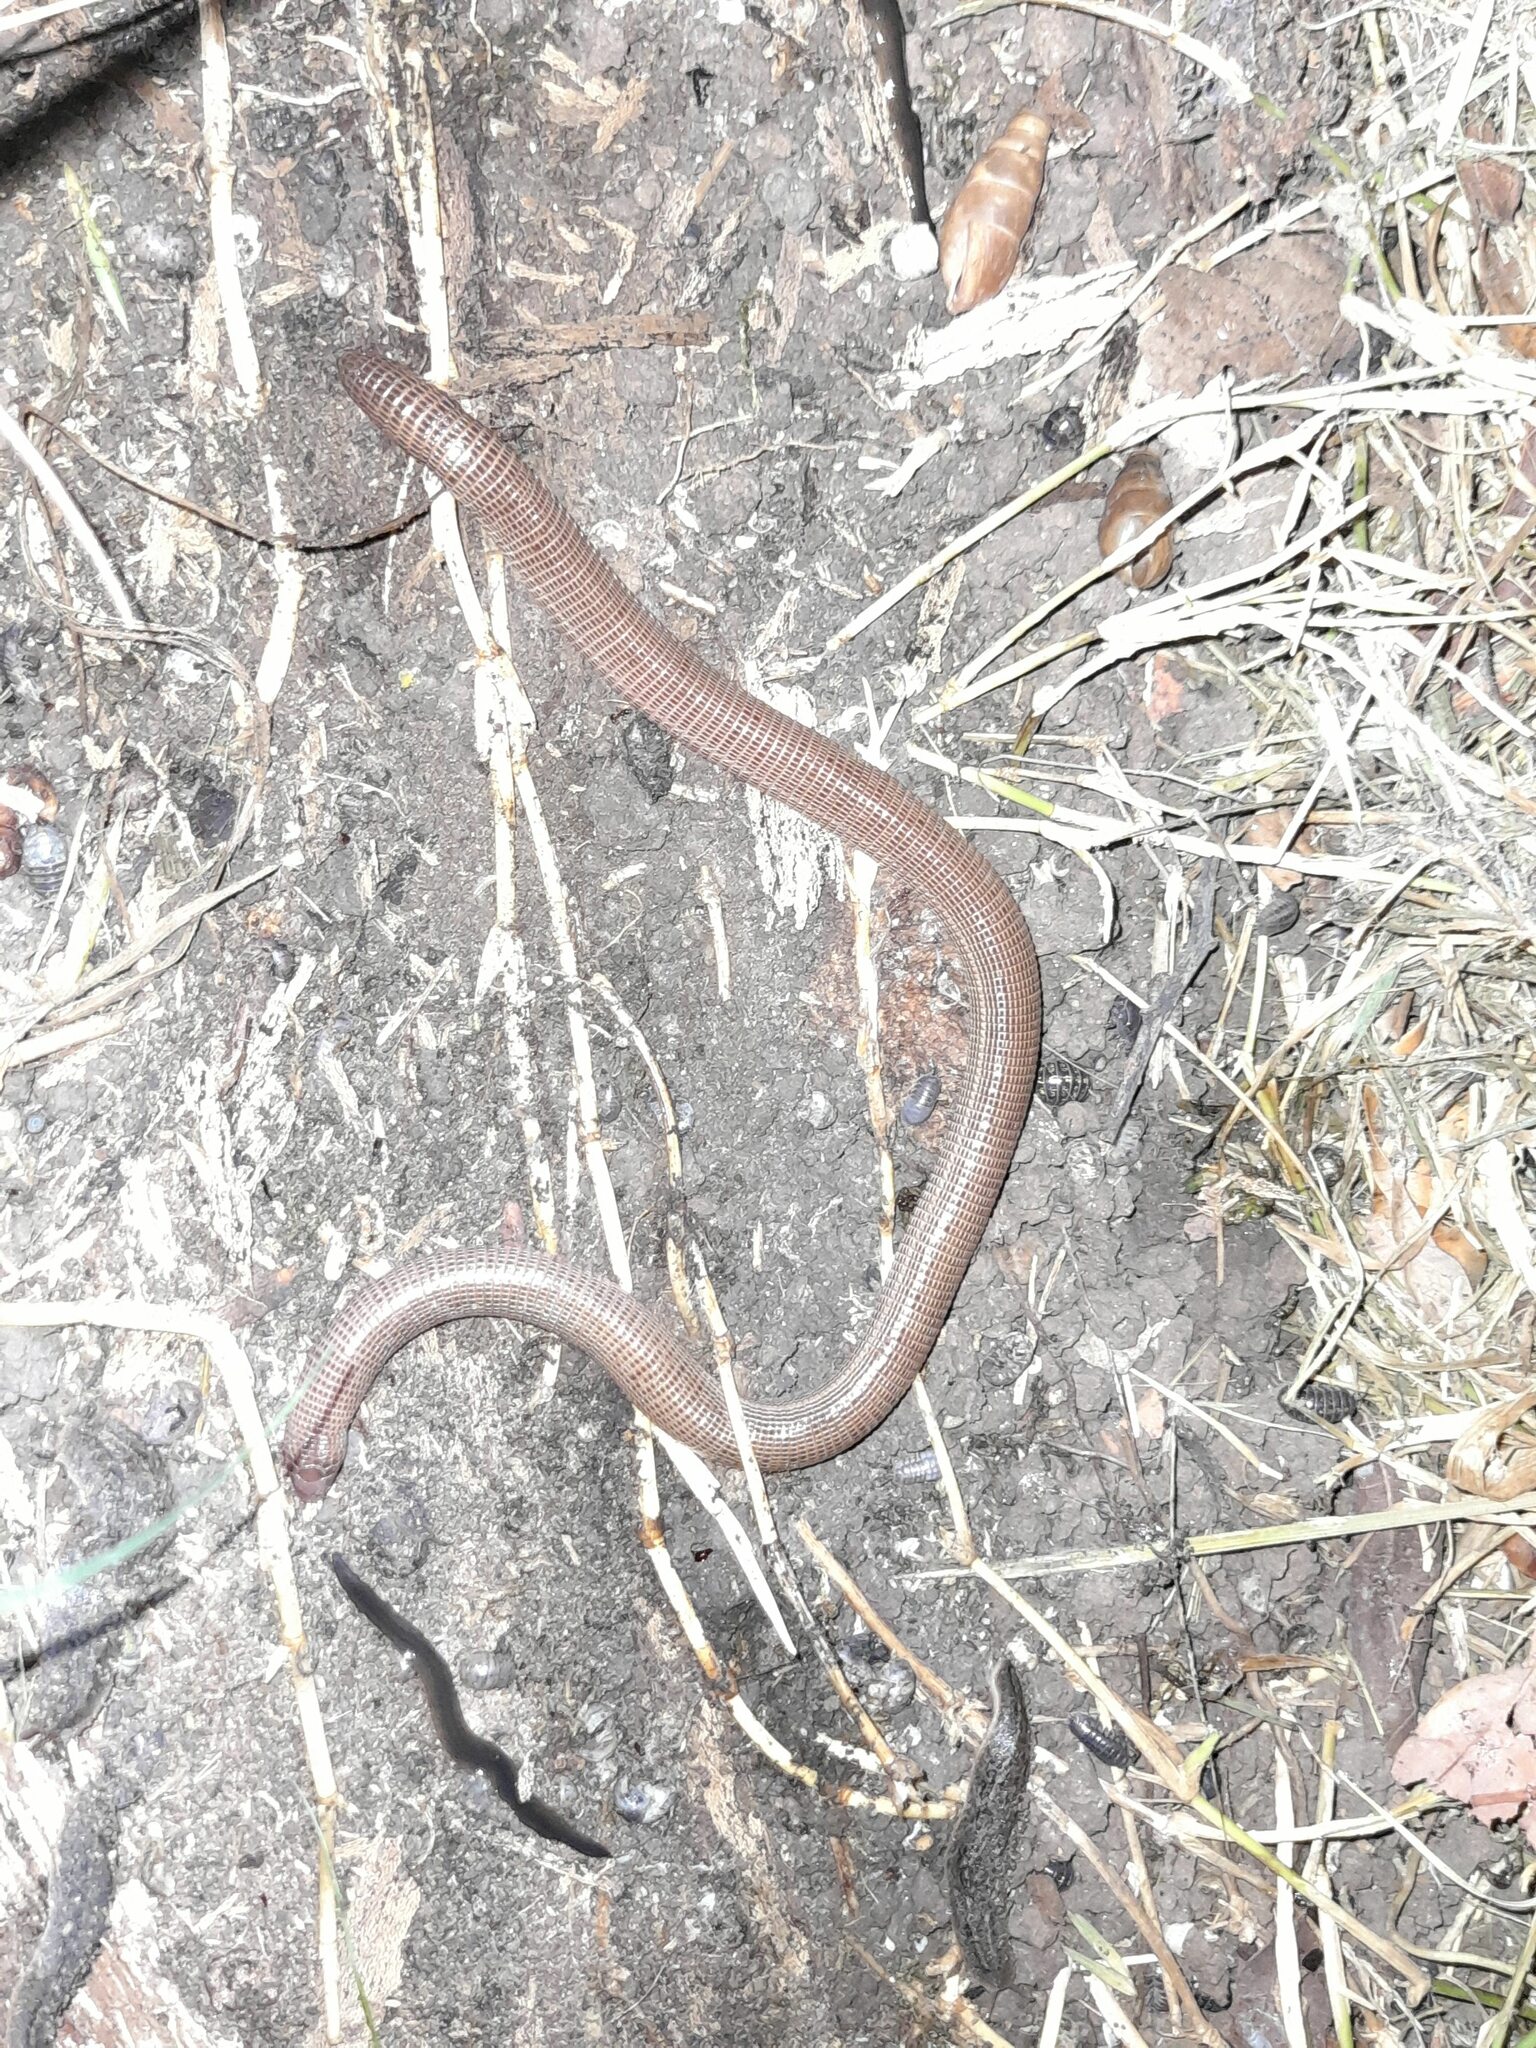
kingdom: Animalia
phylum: Chordata
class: Squamata
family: Amphisbaenidae
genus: Amphisbaena
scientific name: Amphisbaena darwinii
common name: Darwin's ringed worm lizard
